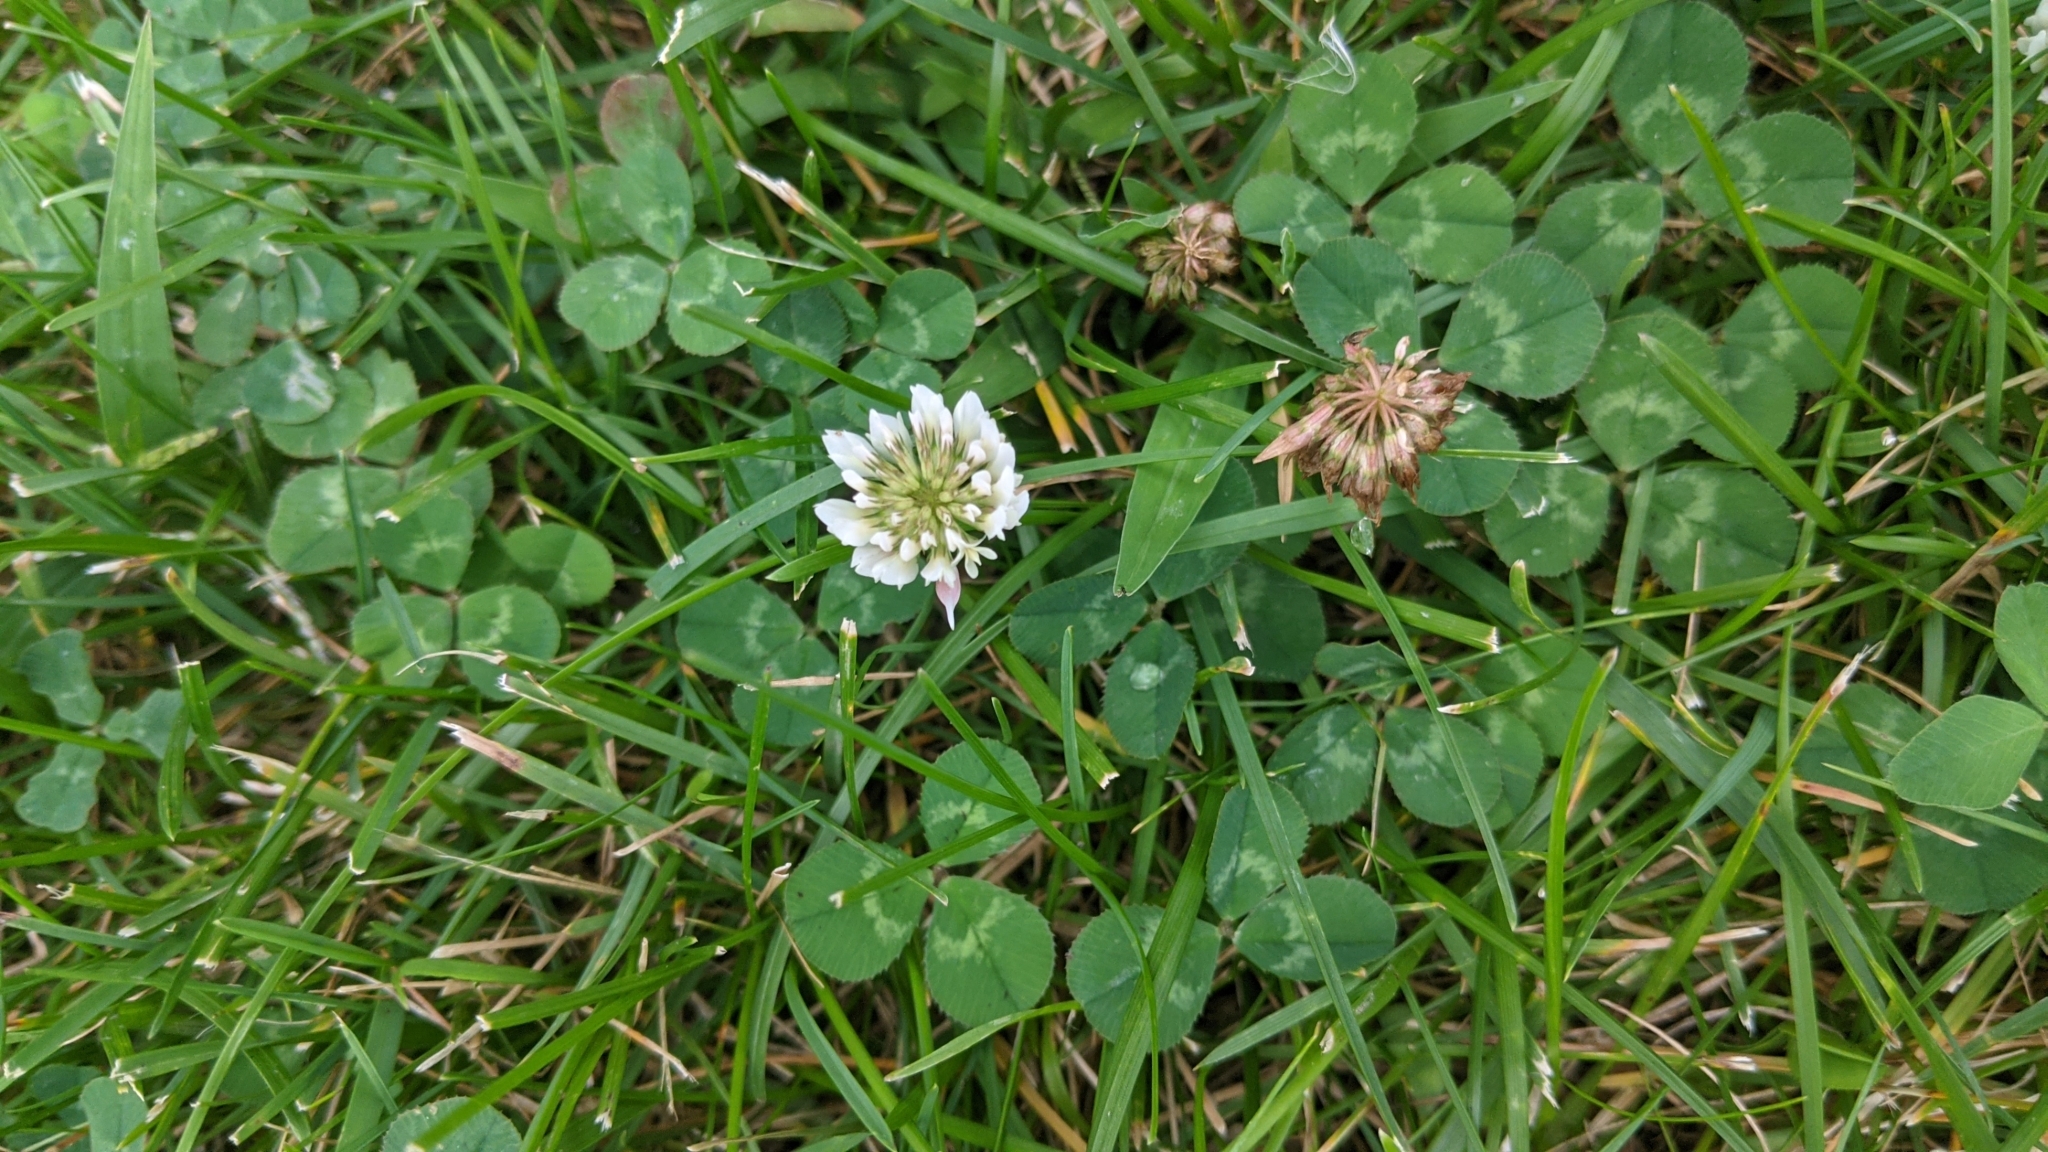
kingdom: Plantae
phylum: Tracheophyta
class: Magnoliopsida
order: Fabales
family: Fabaceae
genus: Trifolium
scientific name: Trifolium repens
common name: White clover
